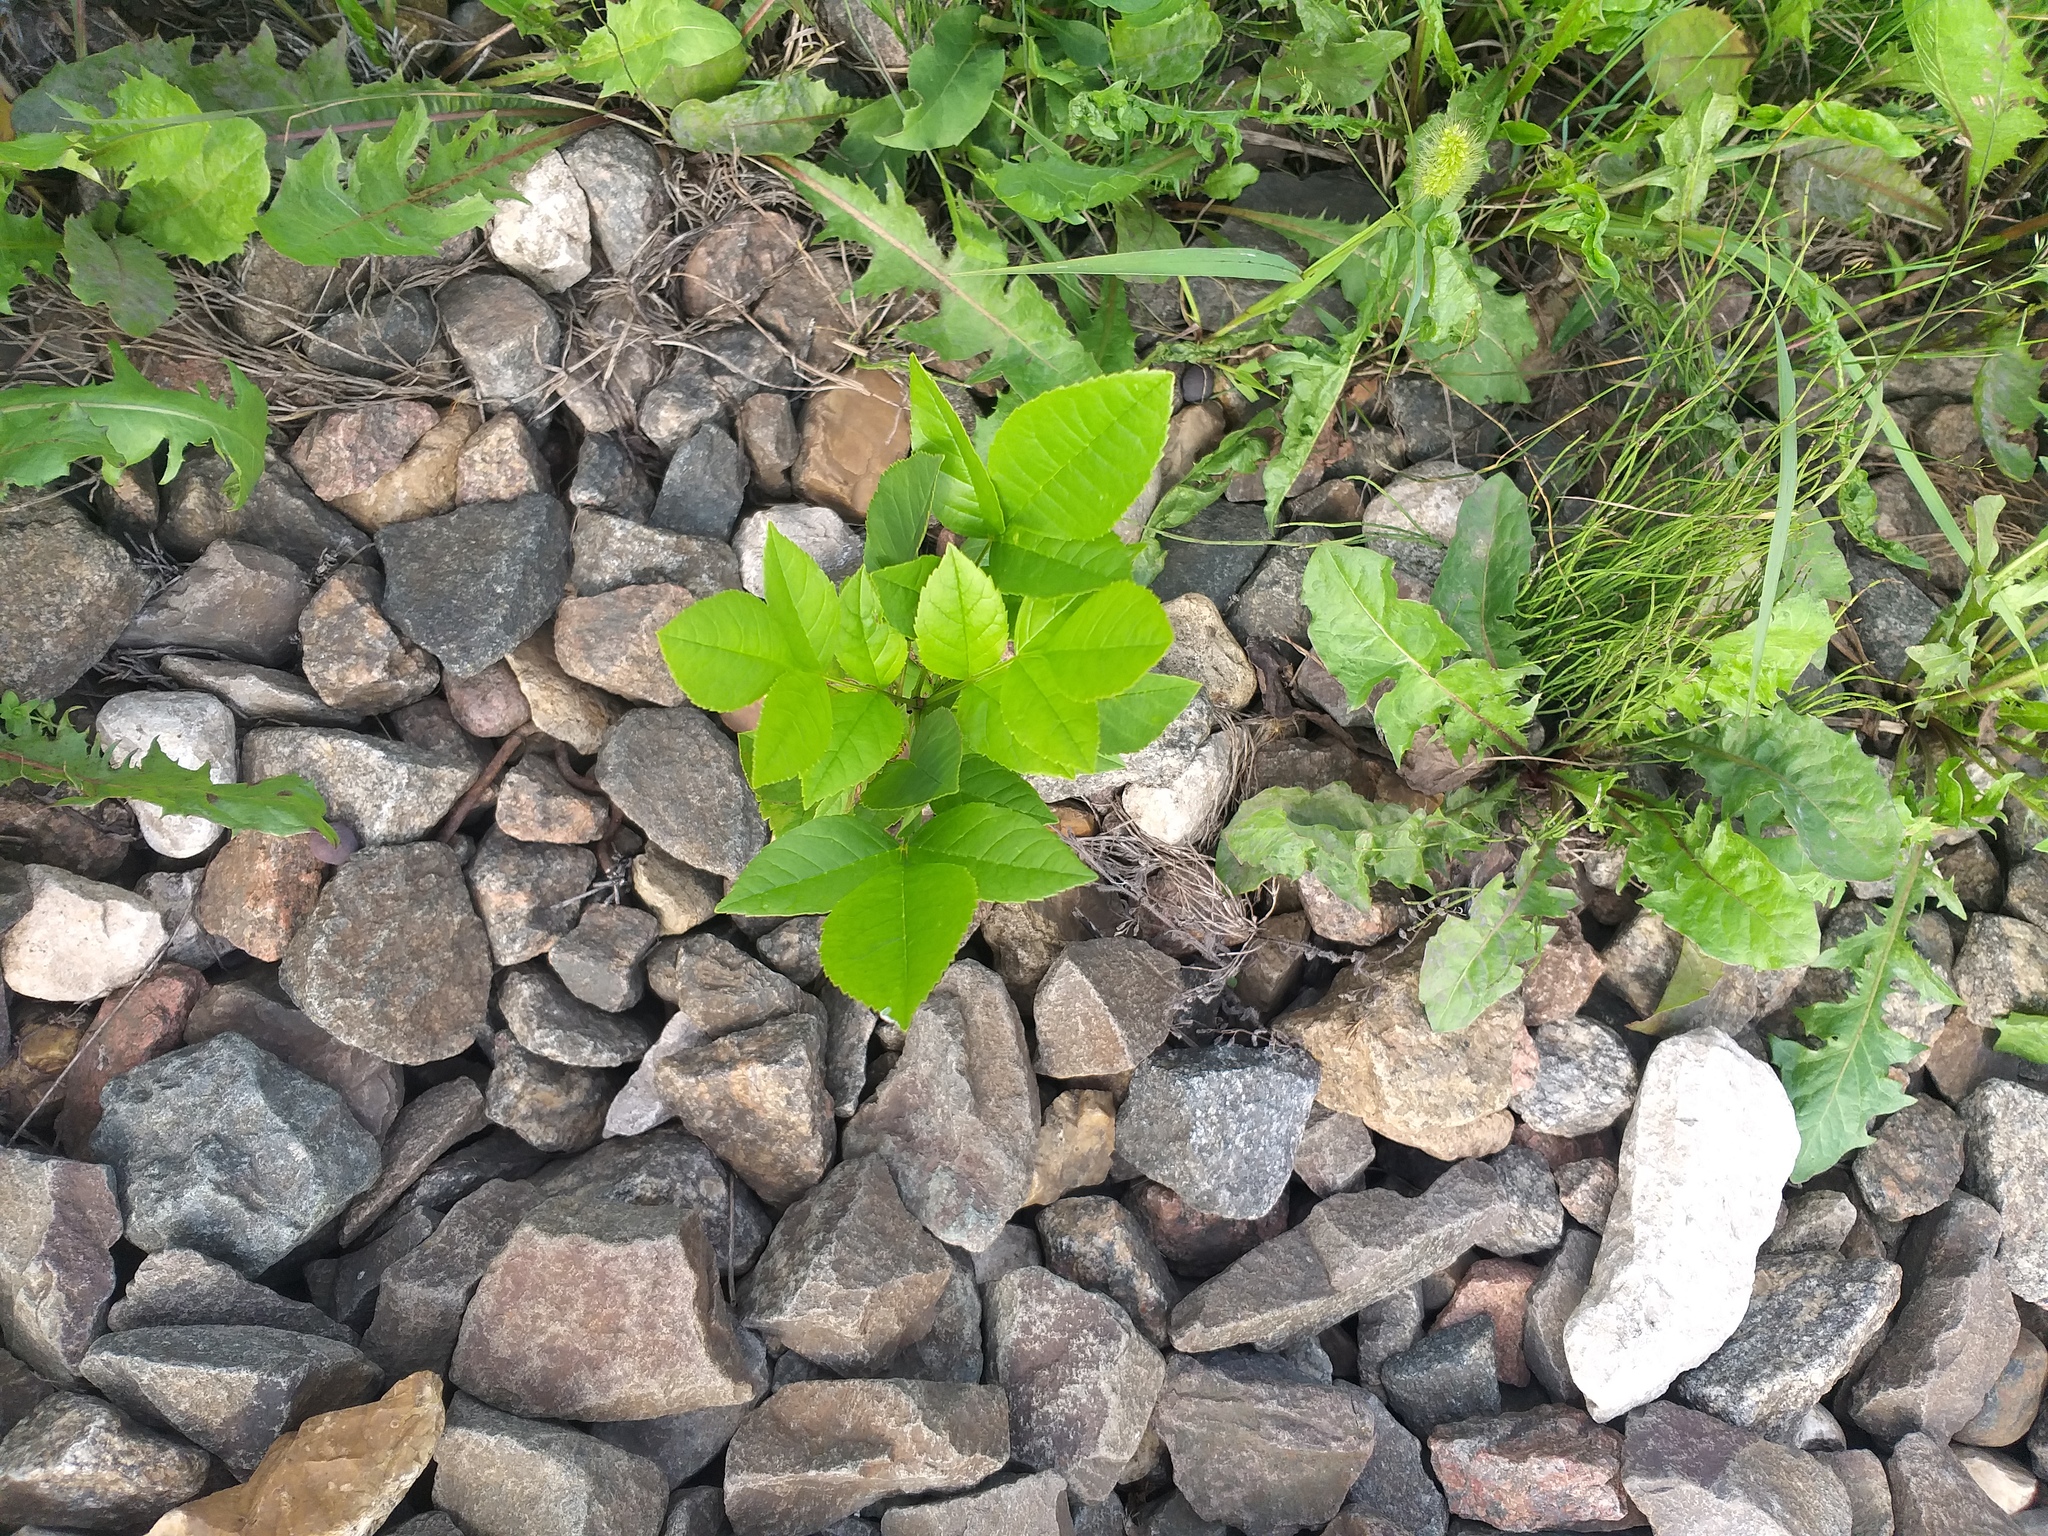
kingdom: Plantae
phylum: Tracheophyta
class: Magnoliopsida
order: Lamiales
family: Oleaceae
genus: Fraxinus
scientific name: Fraxinus pennsylvanica
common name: Green ash
